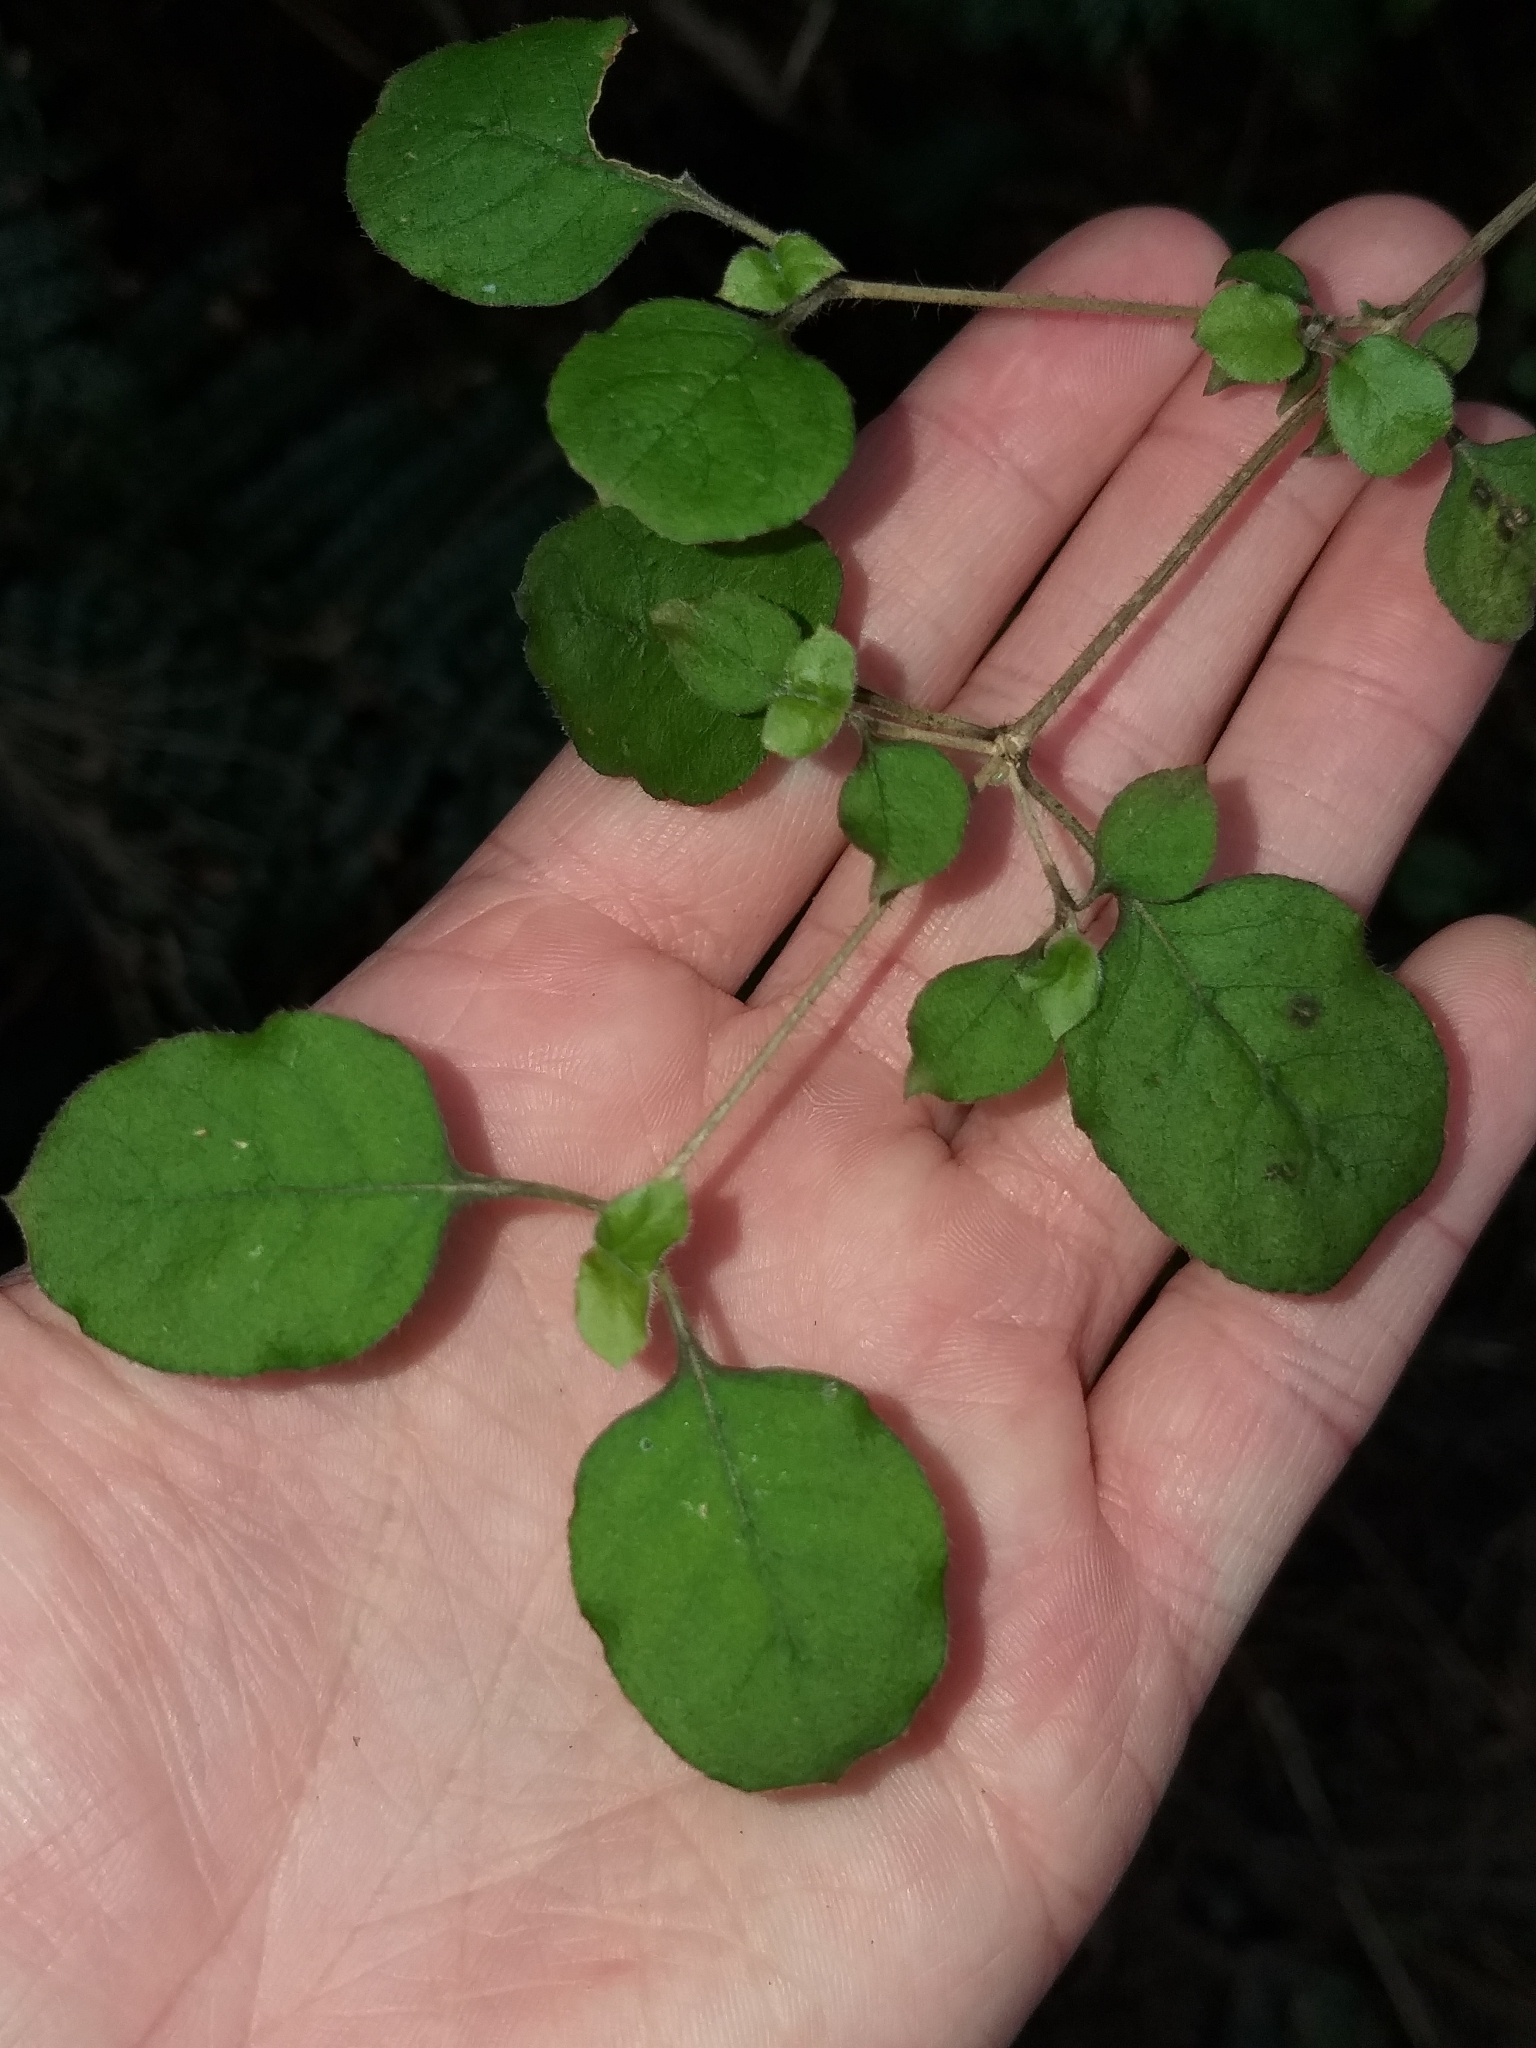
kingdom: Plantae
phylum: Tracheophyta
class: Magnoliopsida
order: Gentianales
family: Rubiaceae
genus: Coprosma
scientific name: Coprosma rotundifolia
